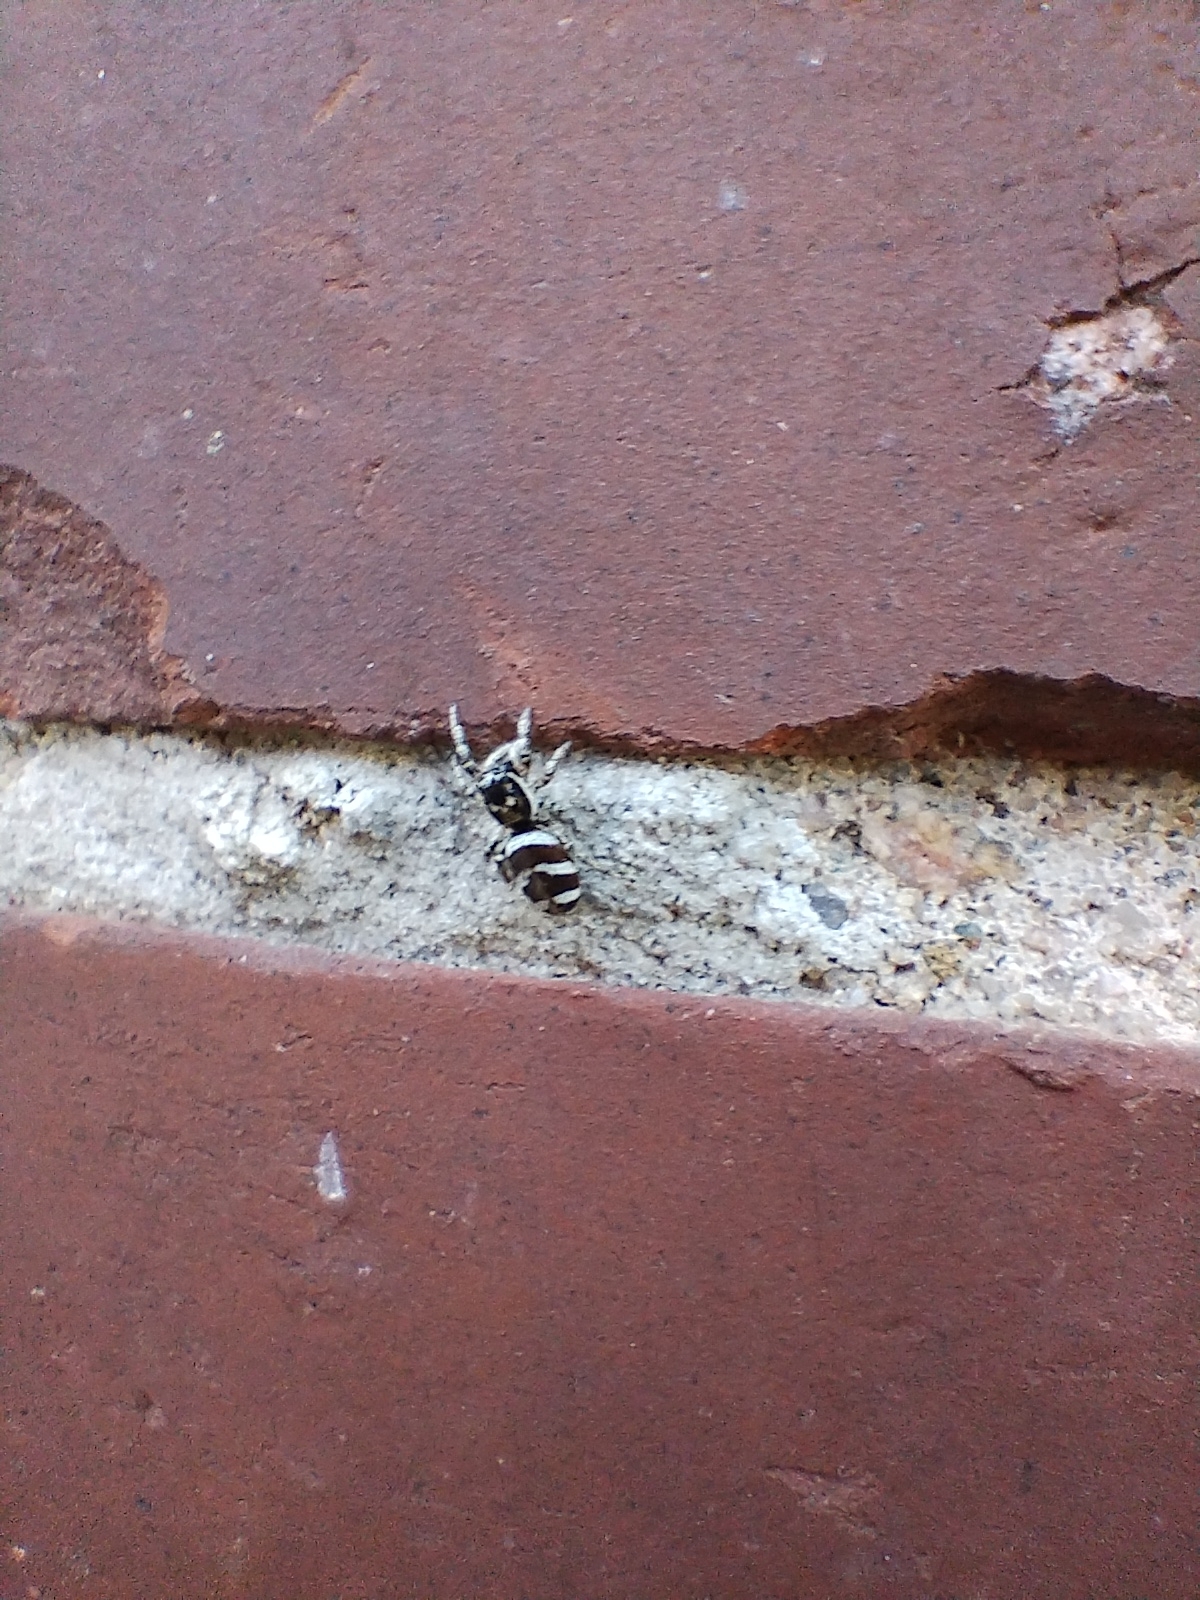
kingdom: Animalia
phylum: Arthropoda
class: Arachnida
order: Araneae
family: Salticidae
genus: Salticus
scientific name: Salticus scenicus
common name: Zebra jumper
